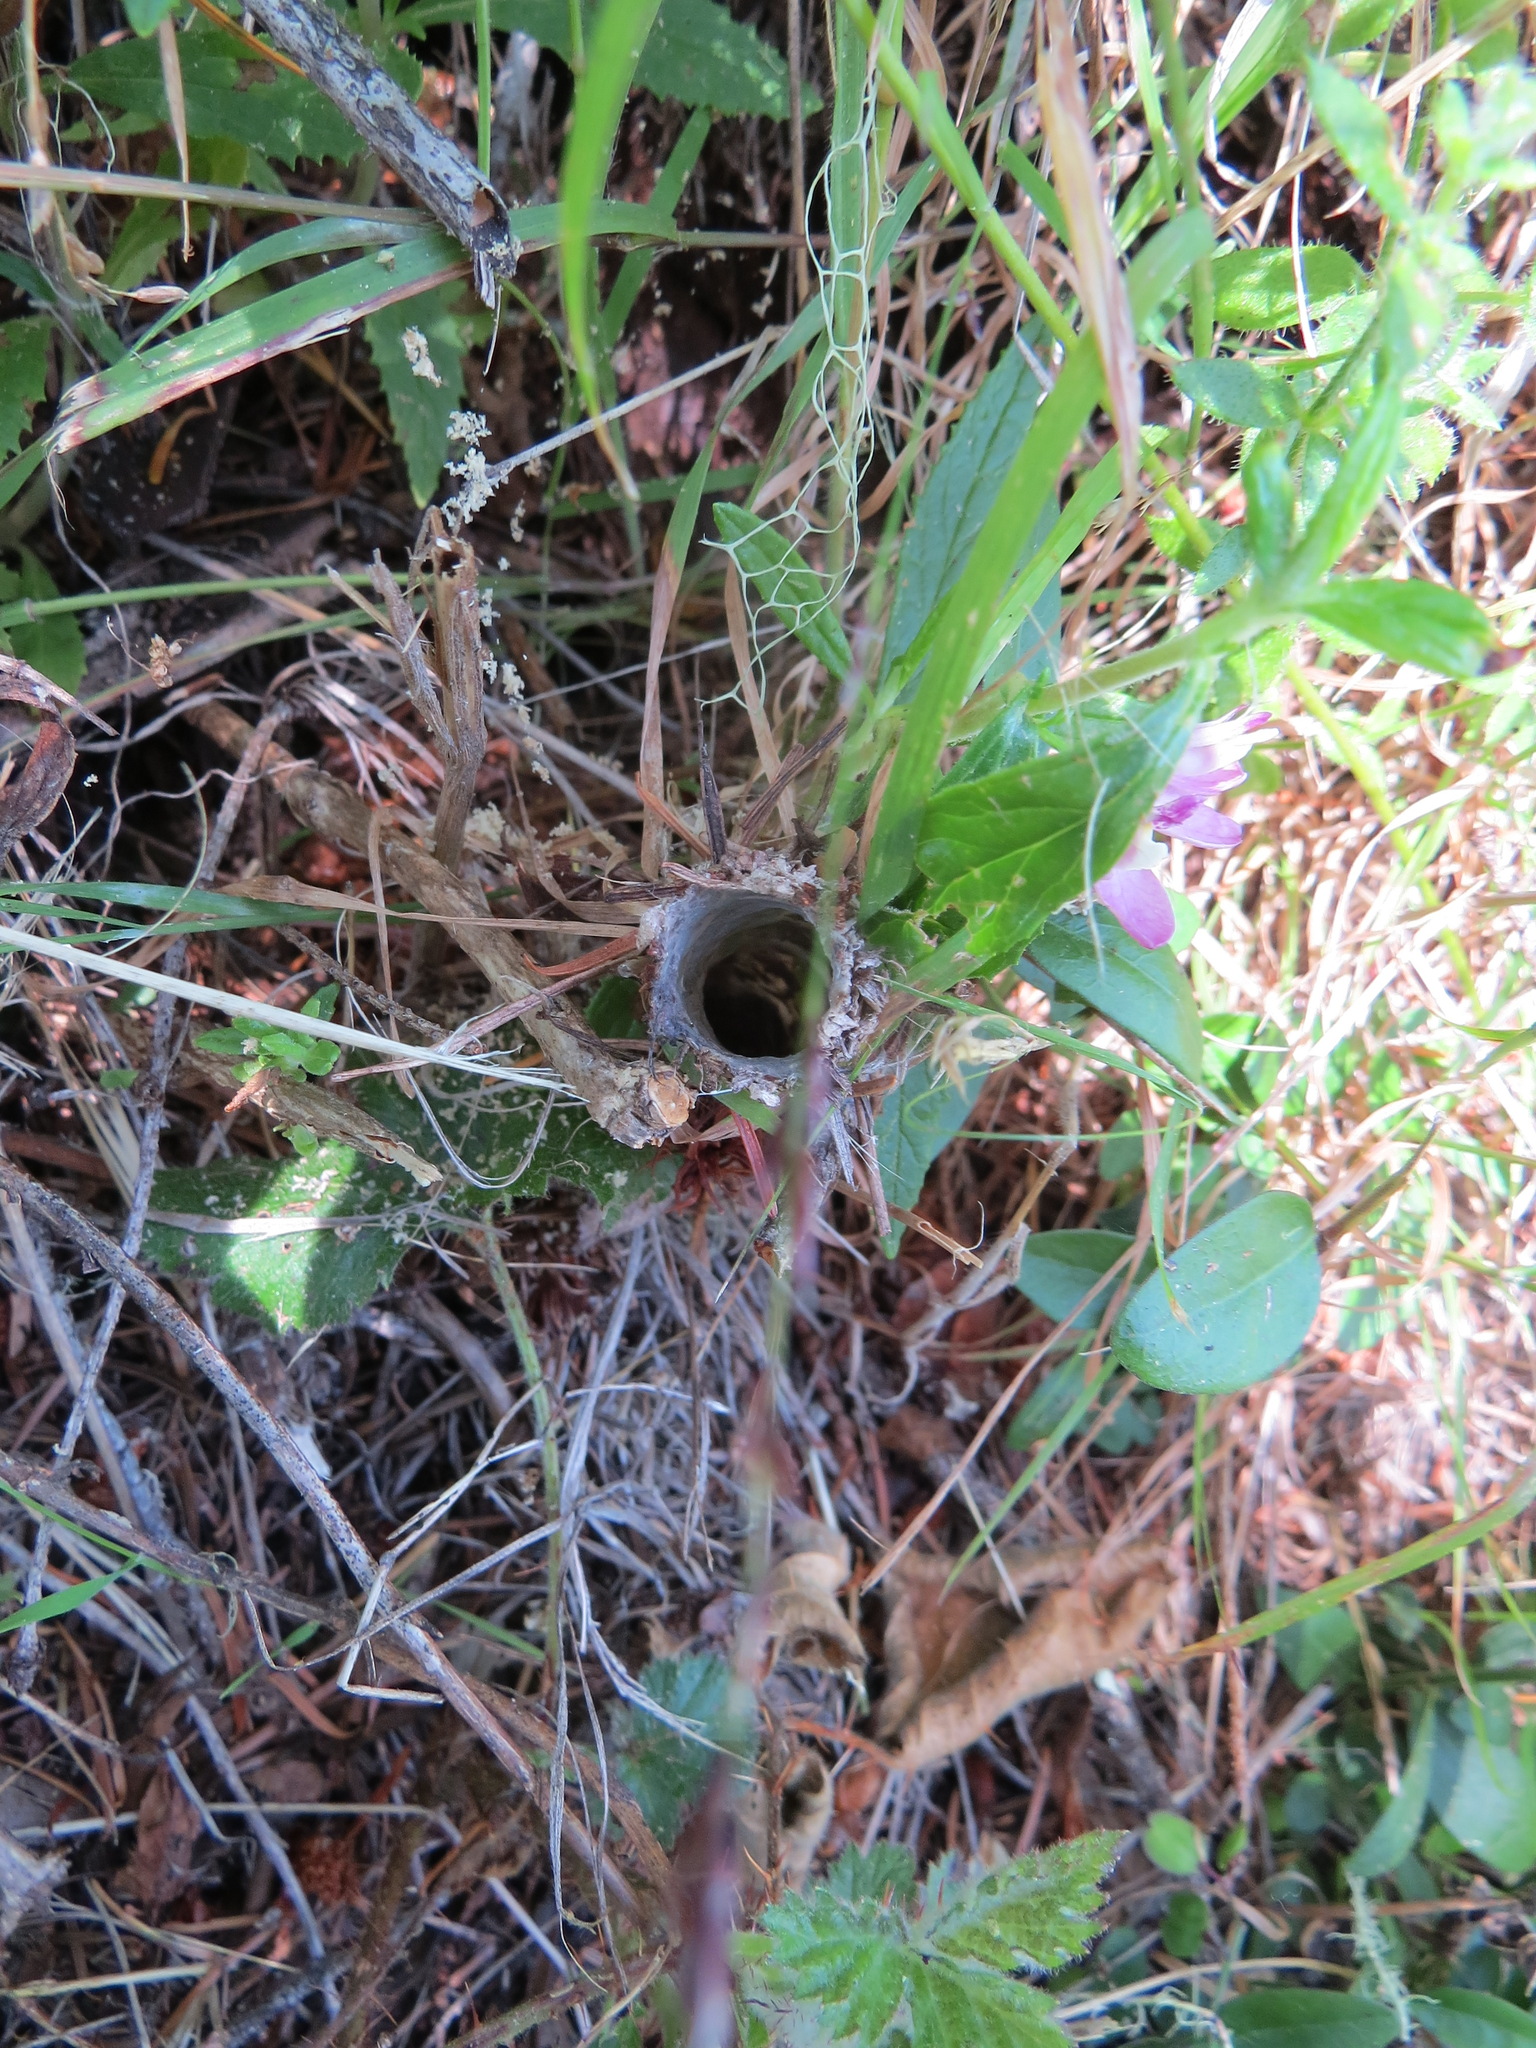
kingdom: Animalia
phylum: Arthropoda
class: Arachnida
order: Araneae
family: Antrodiaetidae
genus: Atypoides
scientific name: Atypoides riversi
